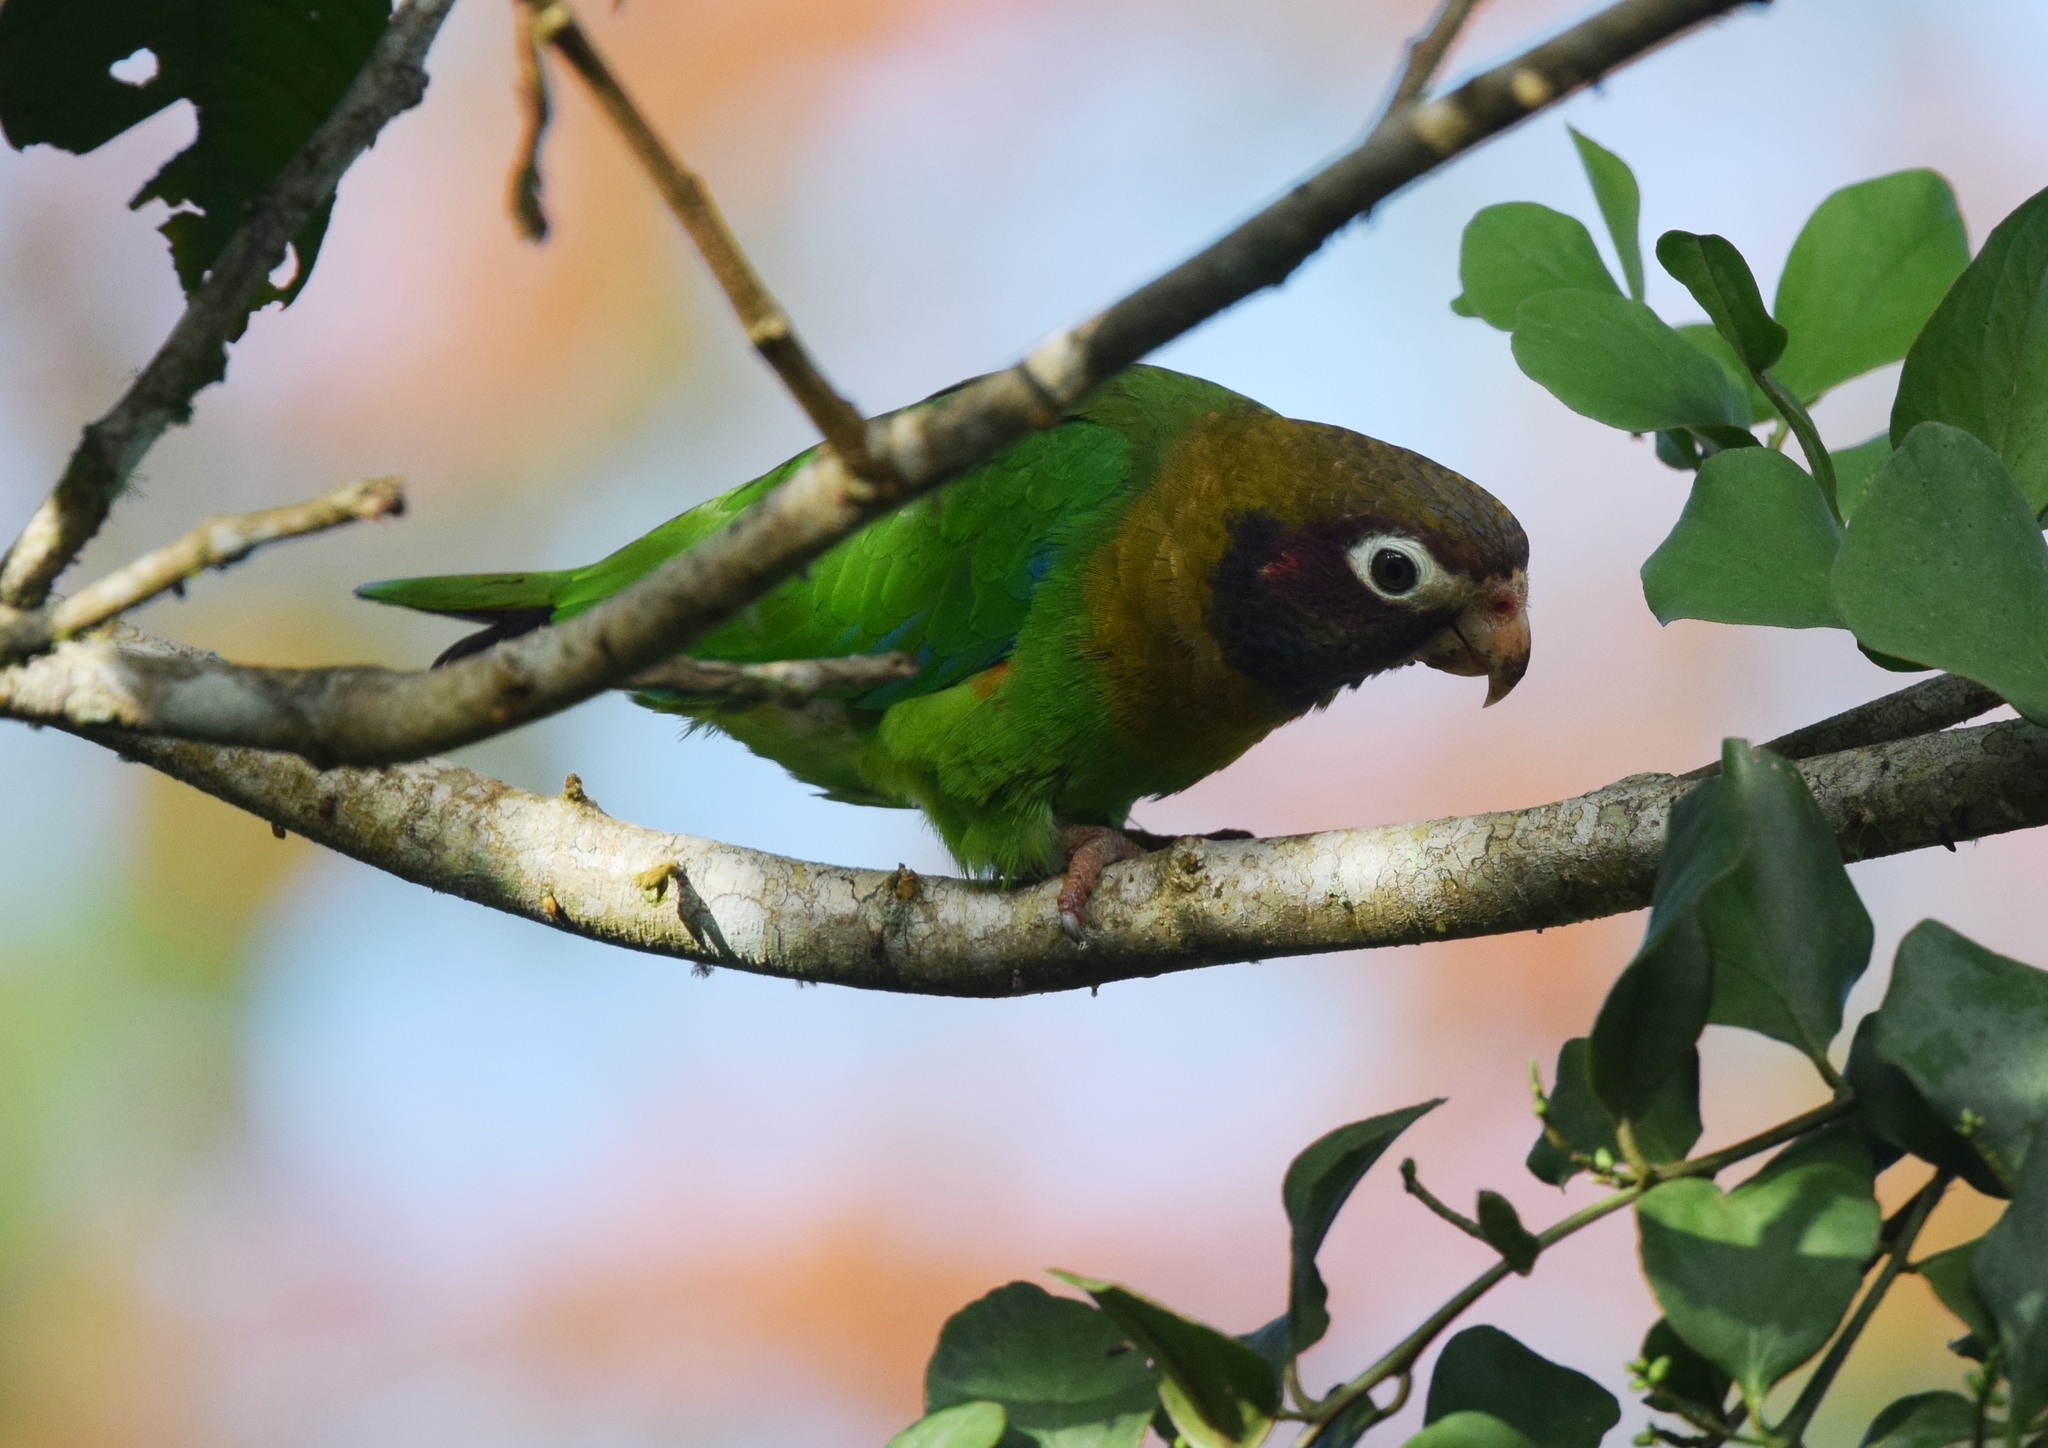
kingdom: Animalia
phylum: Chordata
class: Aves
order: Psittaciformes
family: Psittacidae
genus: Pionopsitta
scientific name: Pionopsitta haematotis
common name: Brown-hooded parrot
